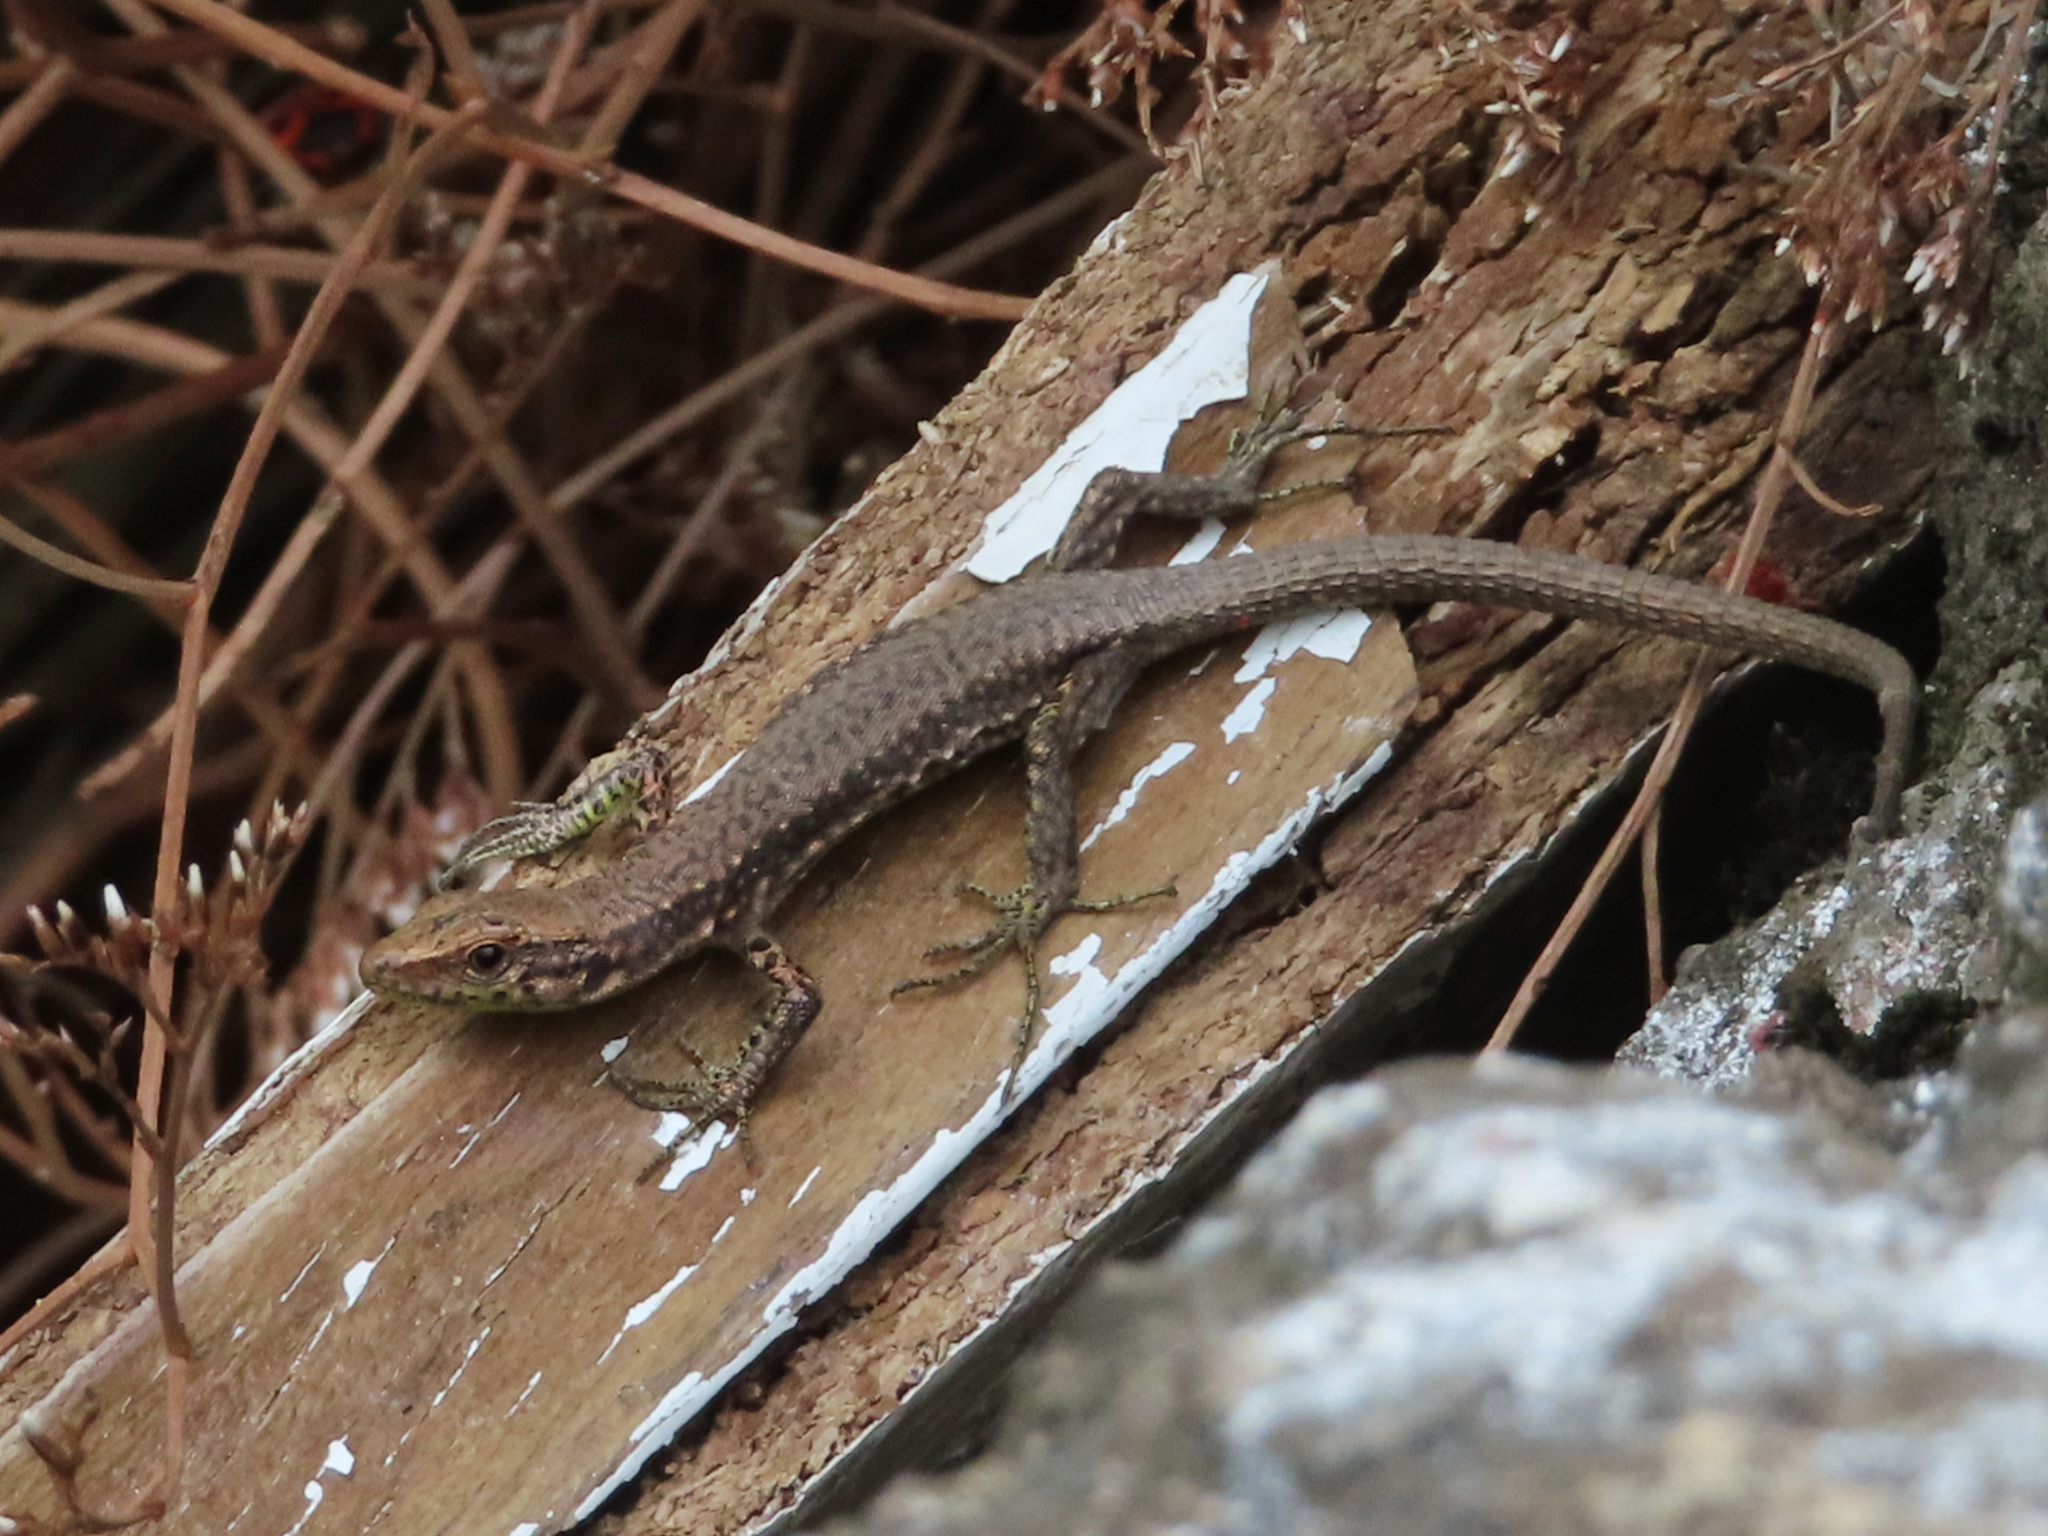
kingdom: Animalia
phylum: Chordata
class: Squamata
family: Lacertidae
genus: Darevskia
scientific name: Darevskia mixta
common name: Ajarian lizard
